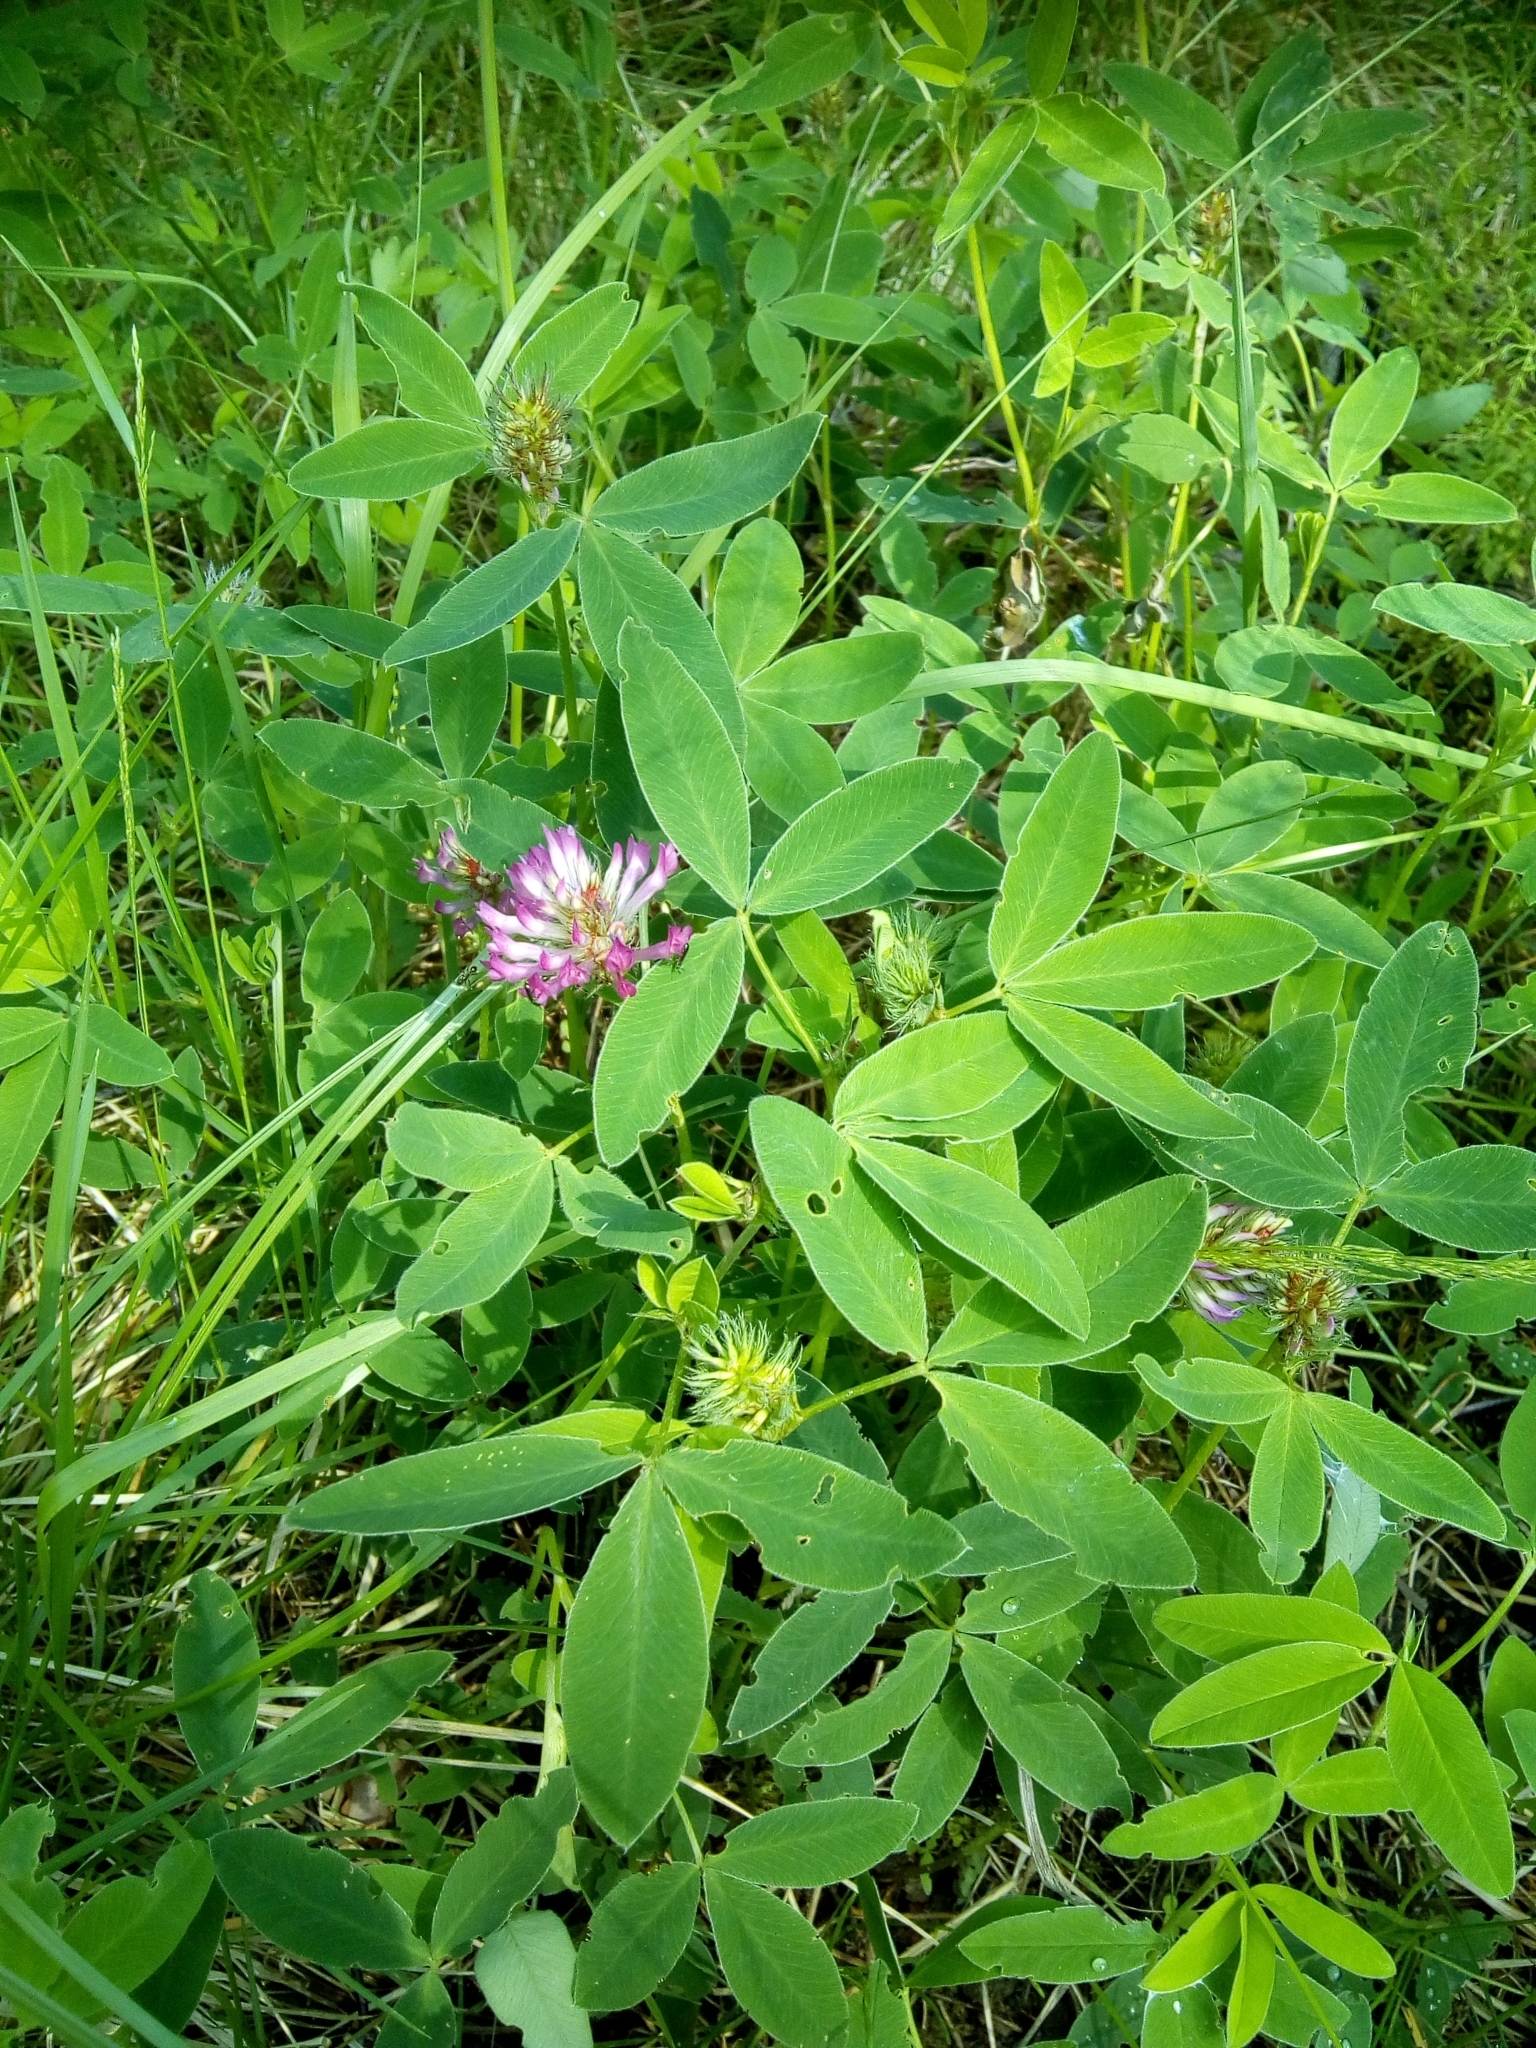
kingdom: Plantae
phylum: Tracheophyta
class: Magnoliopsida
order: Fabales
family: Fabaceae
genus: Trifolium
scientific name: Trifolium medium
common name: Zigzag clover
